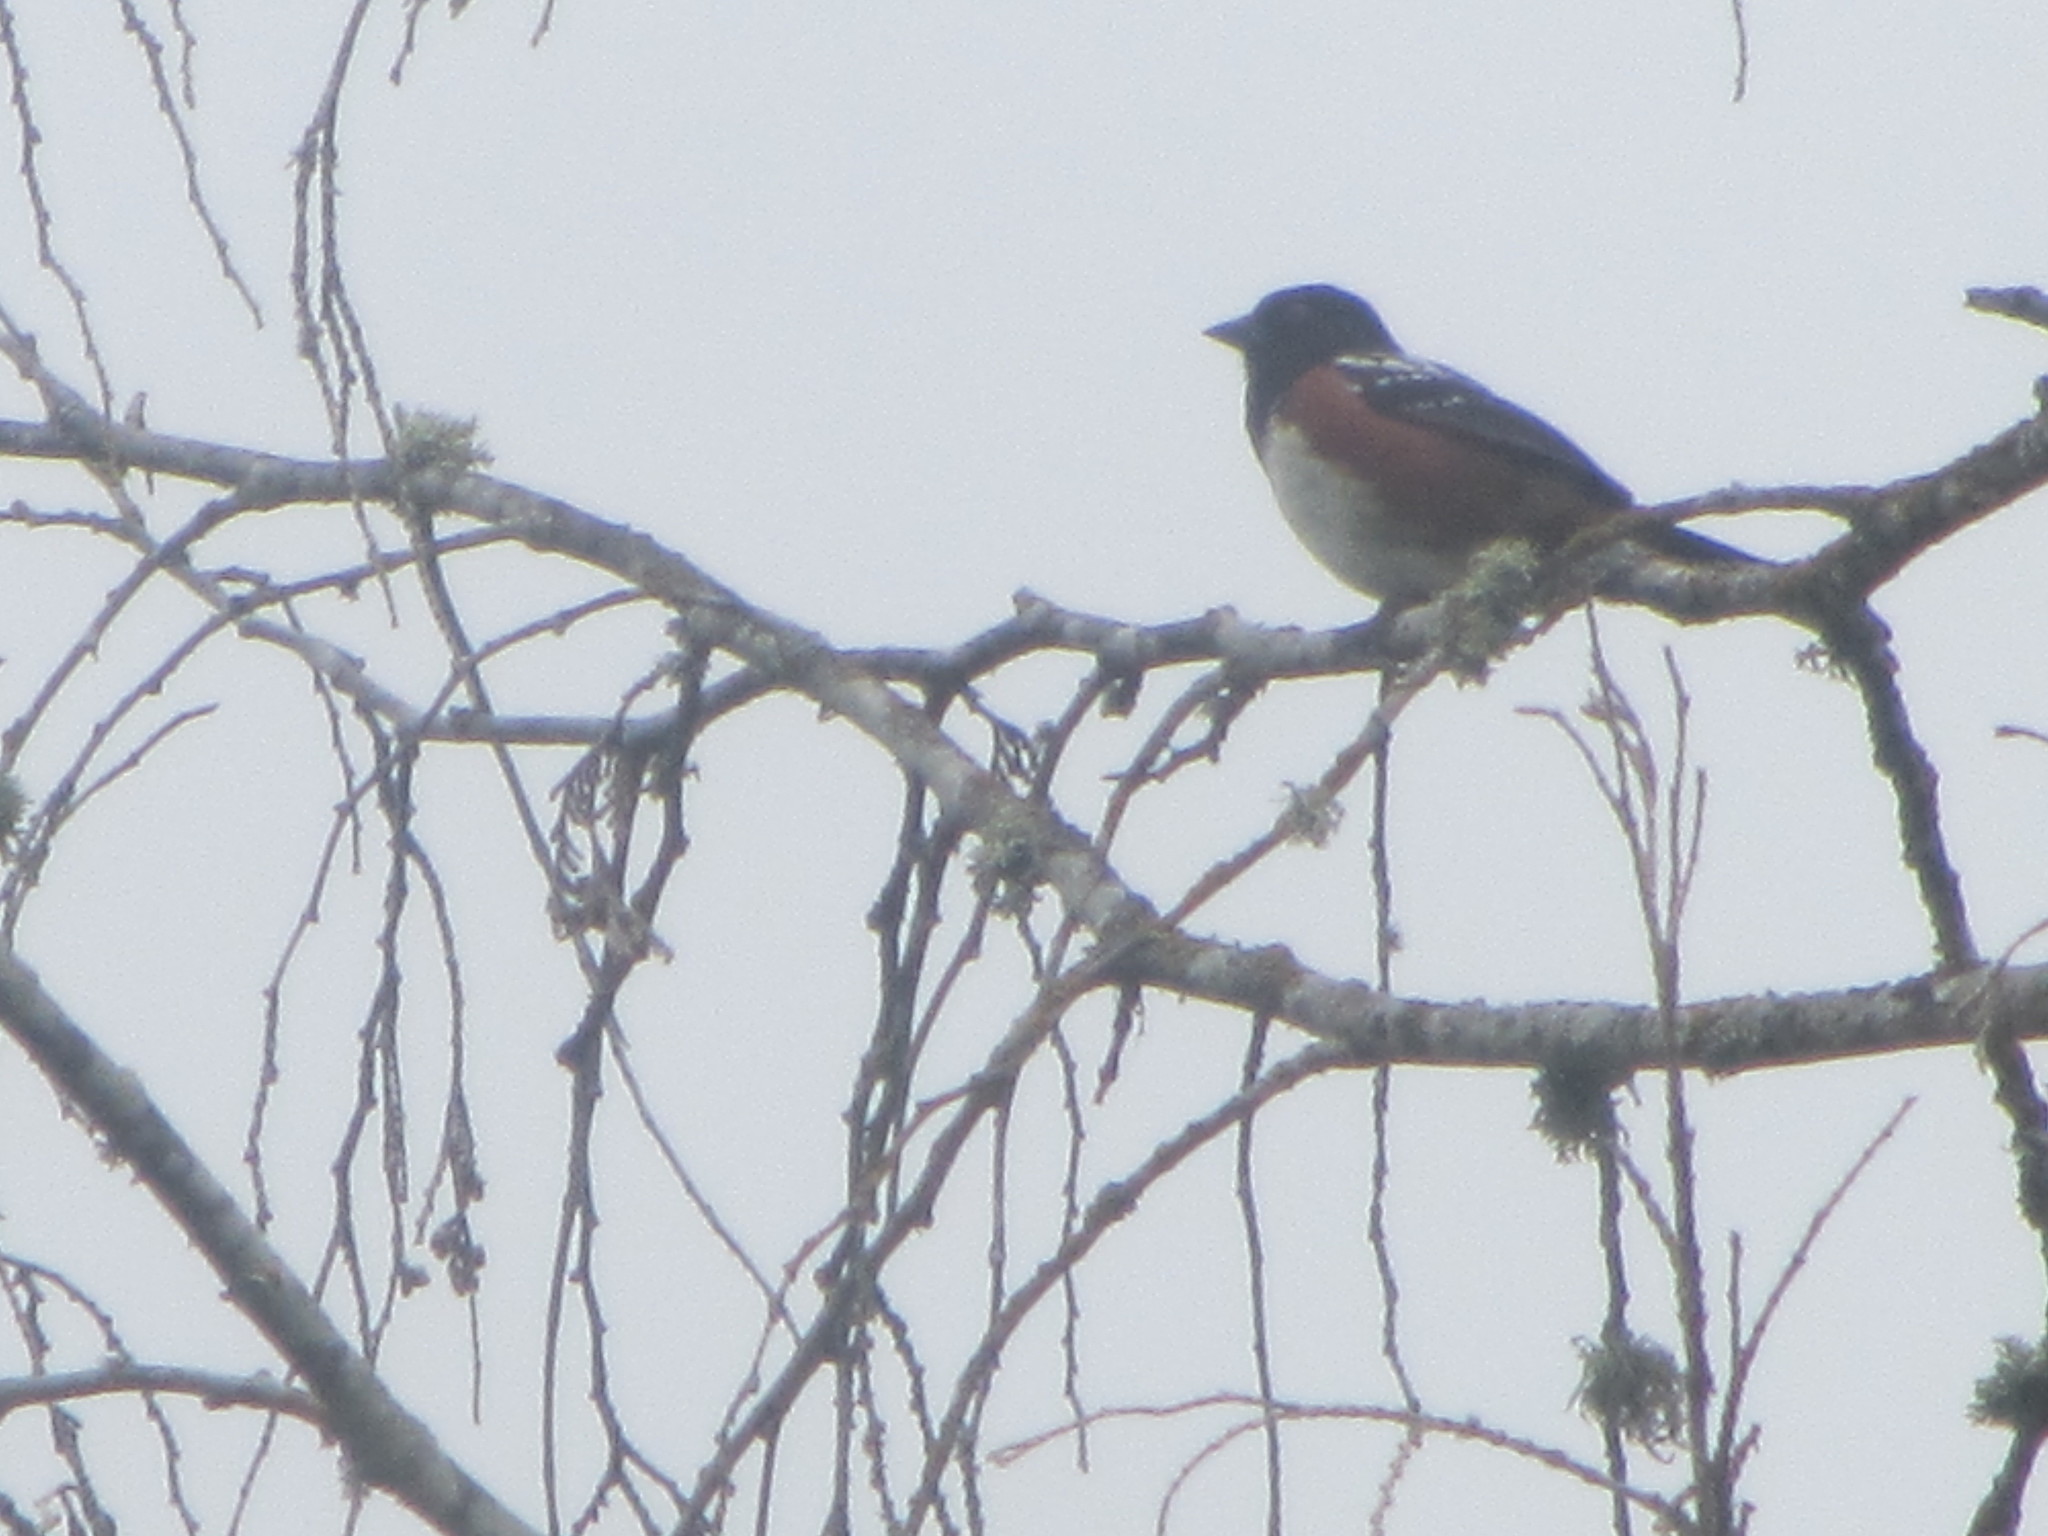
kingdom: Animalia
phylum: Chordata
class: Aves
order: Passeriformes
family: Passerellidae
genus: Pipilo
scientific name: Pipilo maculatus
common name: Spotted towhee
